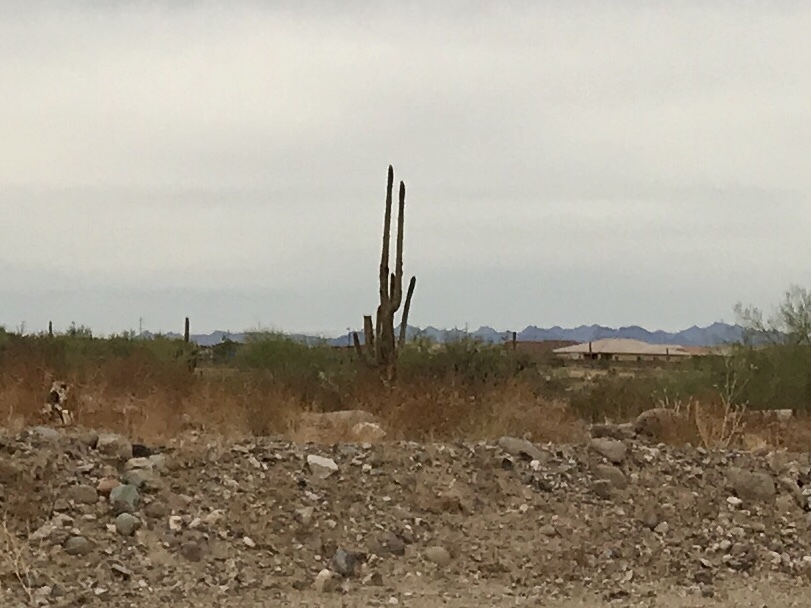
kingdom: Plantae
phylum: Tracheophyta
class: Magnoliopsida
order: Caryophyllales
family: Cactaceae
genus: Carnegiea
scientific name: Carnegiea gigantea
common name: Saguaro
